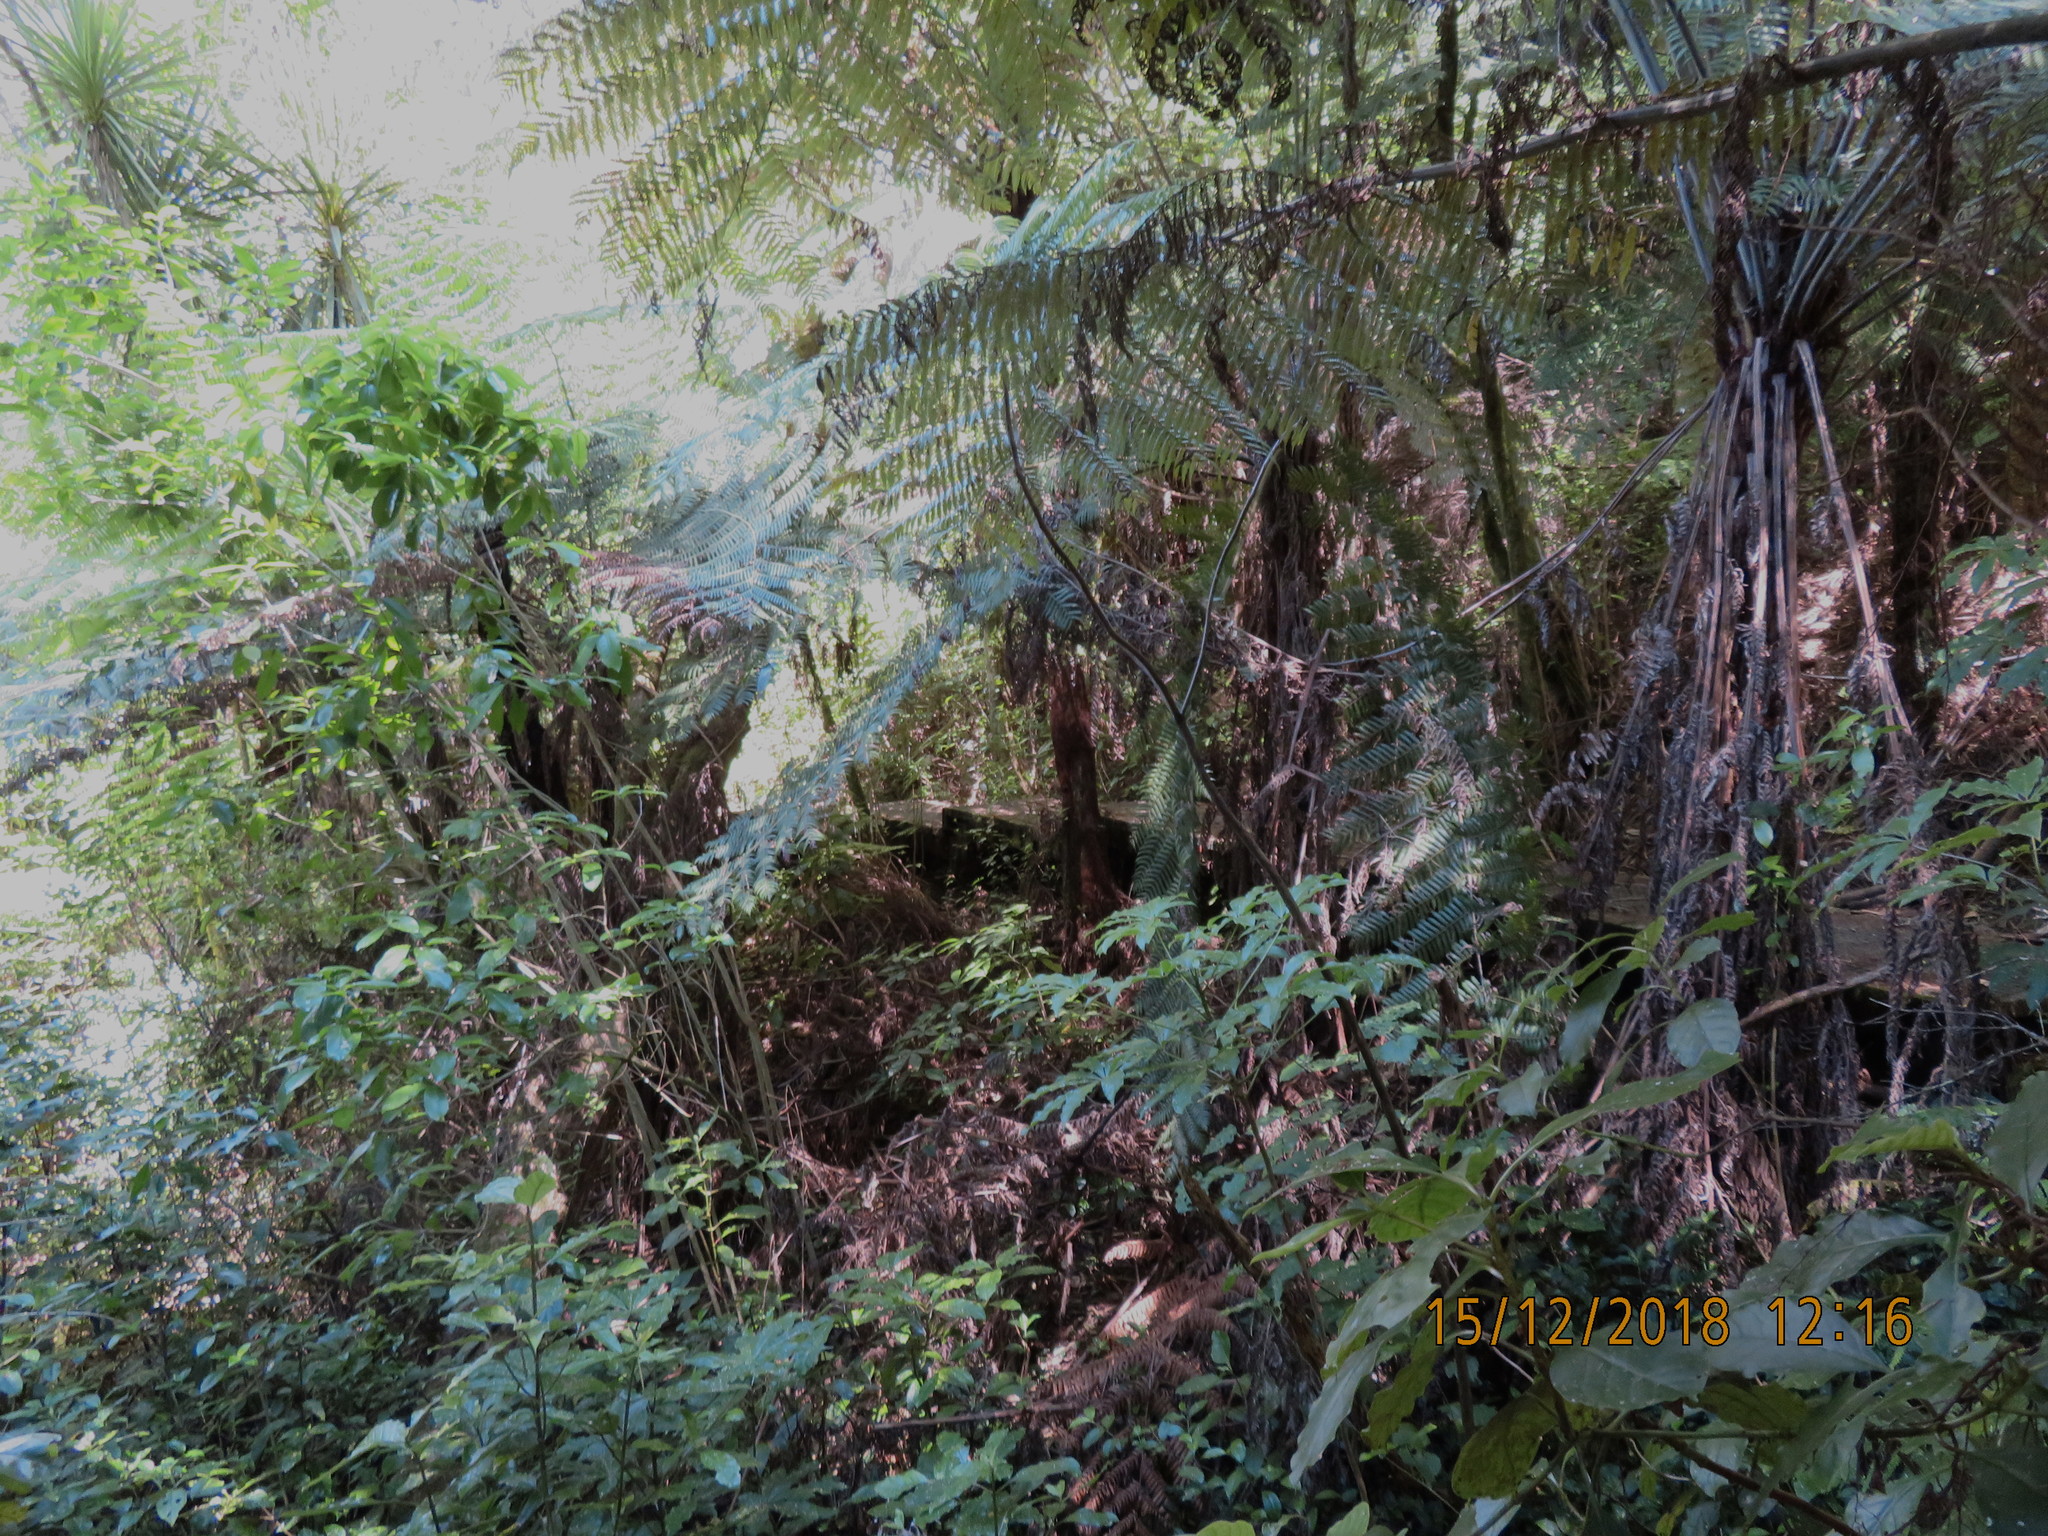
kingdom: Plantae
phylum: Tracheophyta
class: Polypodiopsida
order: Cyatheales
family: Cyatheaceae
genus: Alsophila
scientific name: Alsophila dealbata
